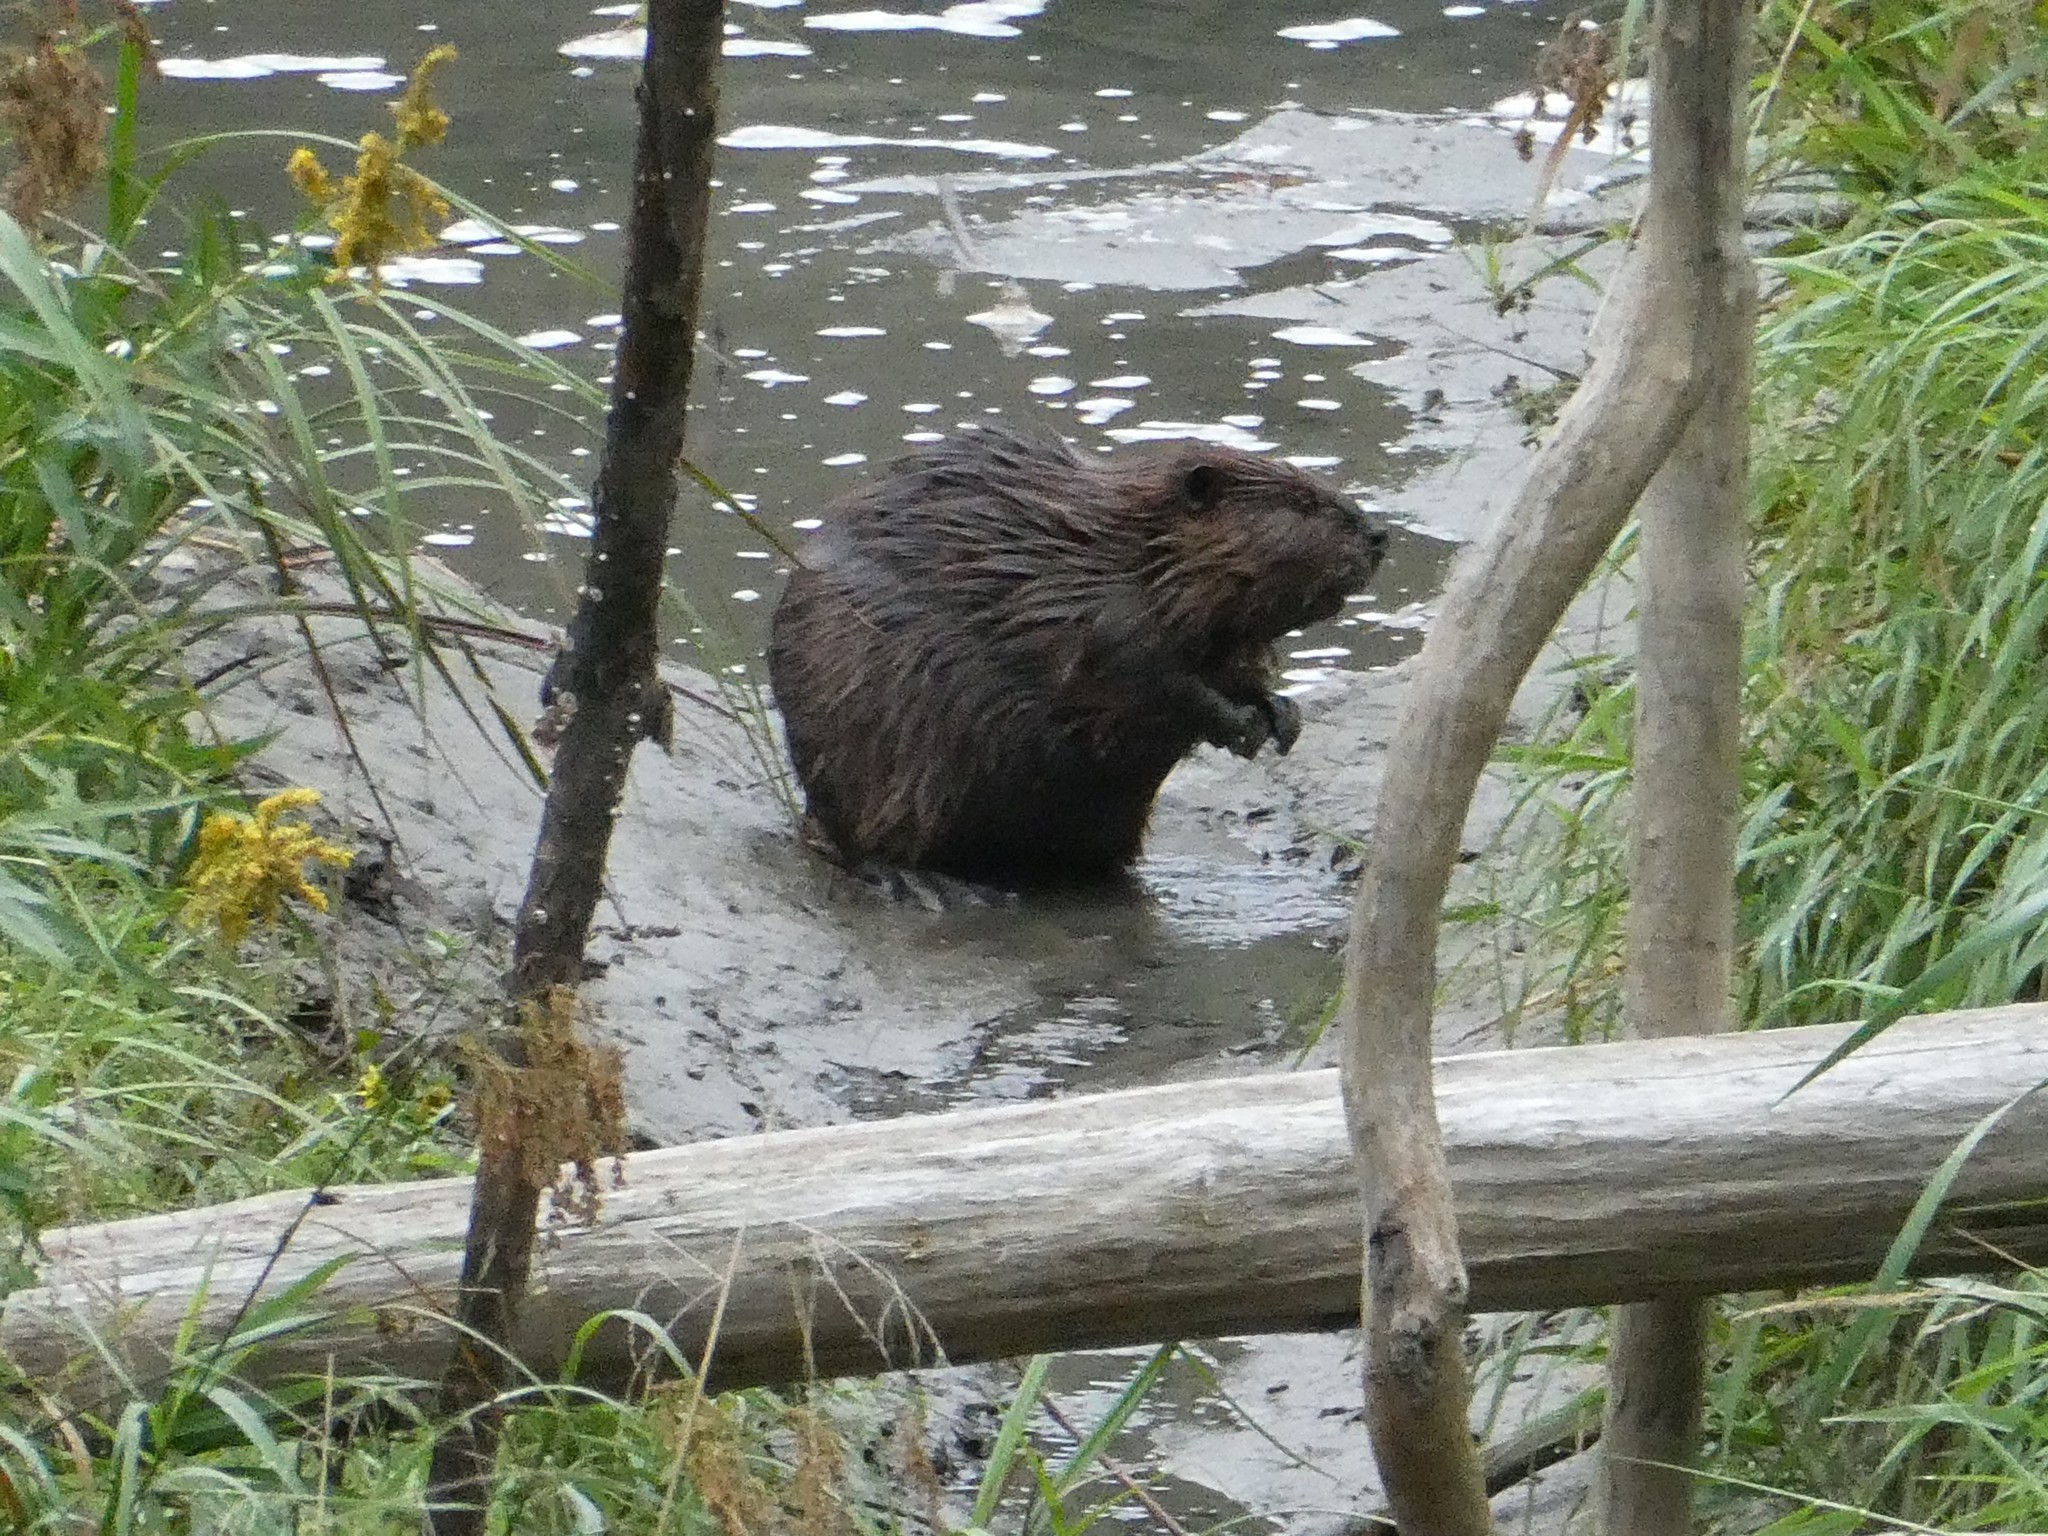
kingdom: Animalia
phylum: Chordata
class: Mammalia
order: Rodentia
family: Castoridae
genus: Castor
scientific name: Castor canadensis
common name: American beaver
